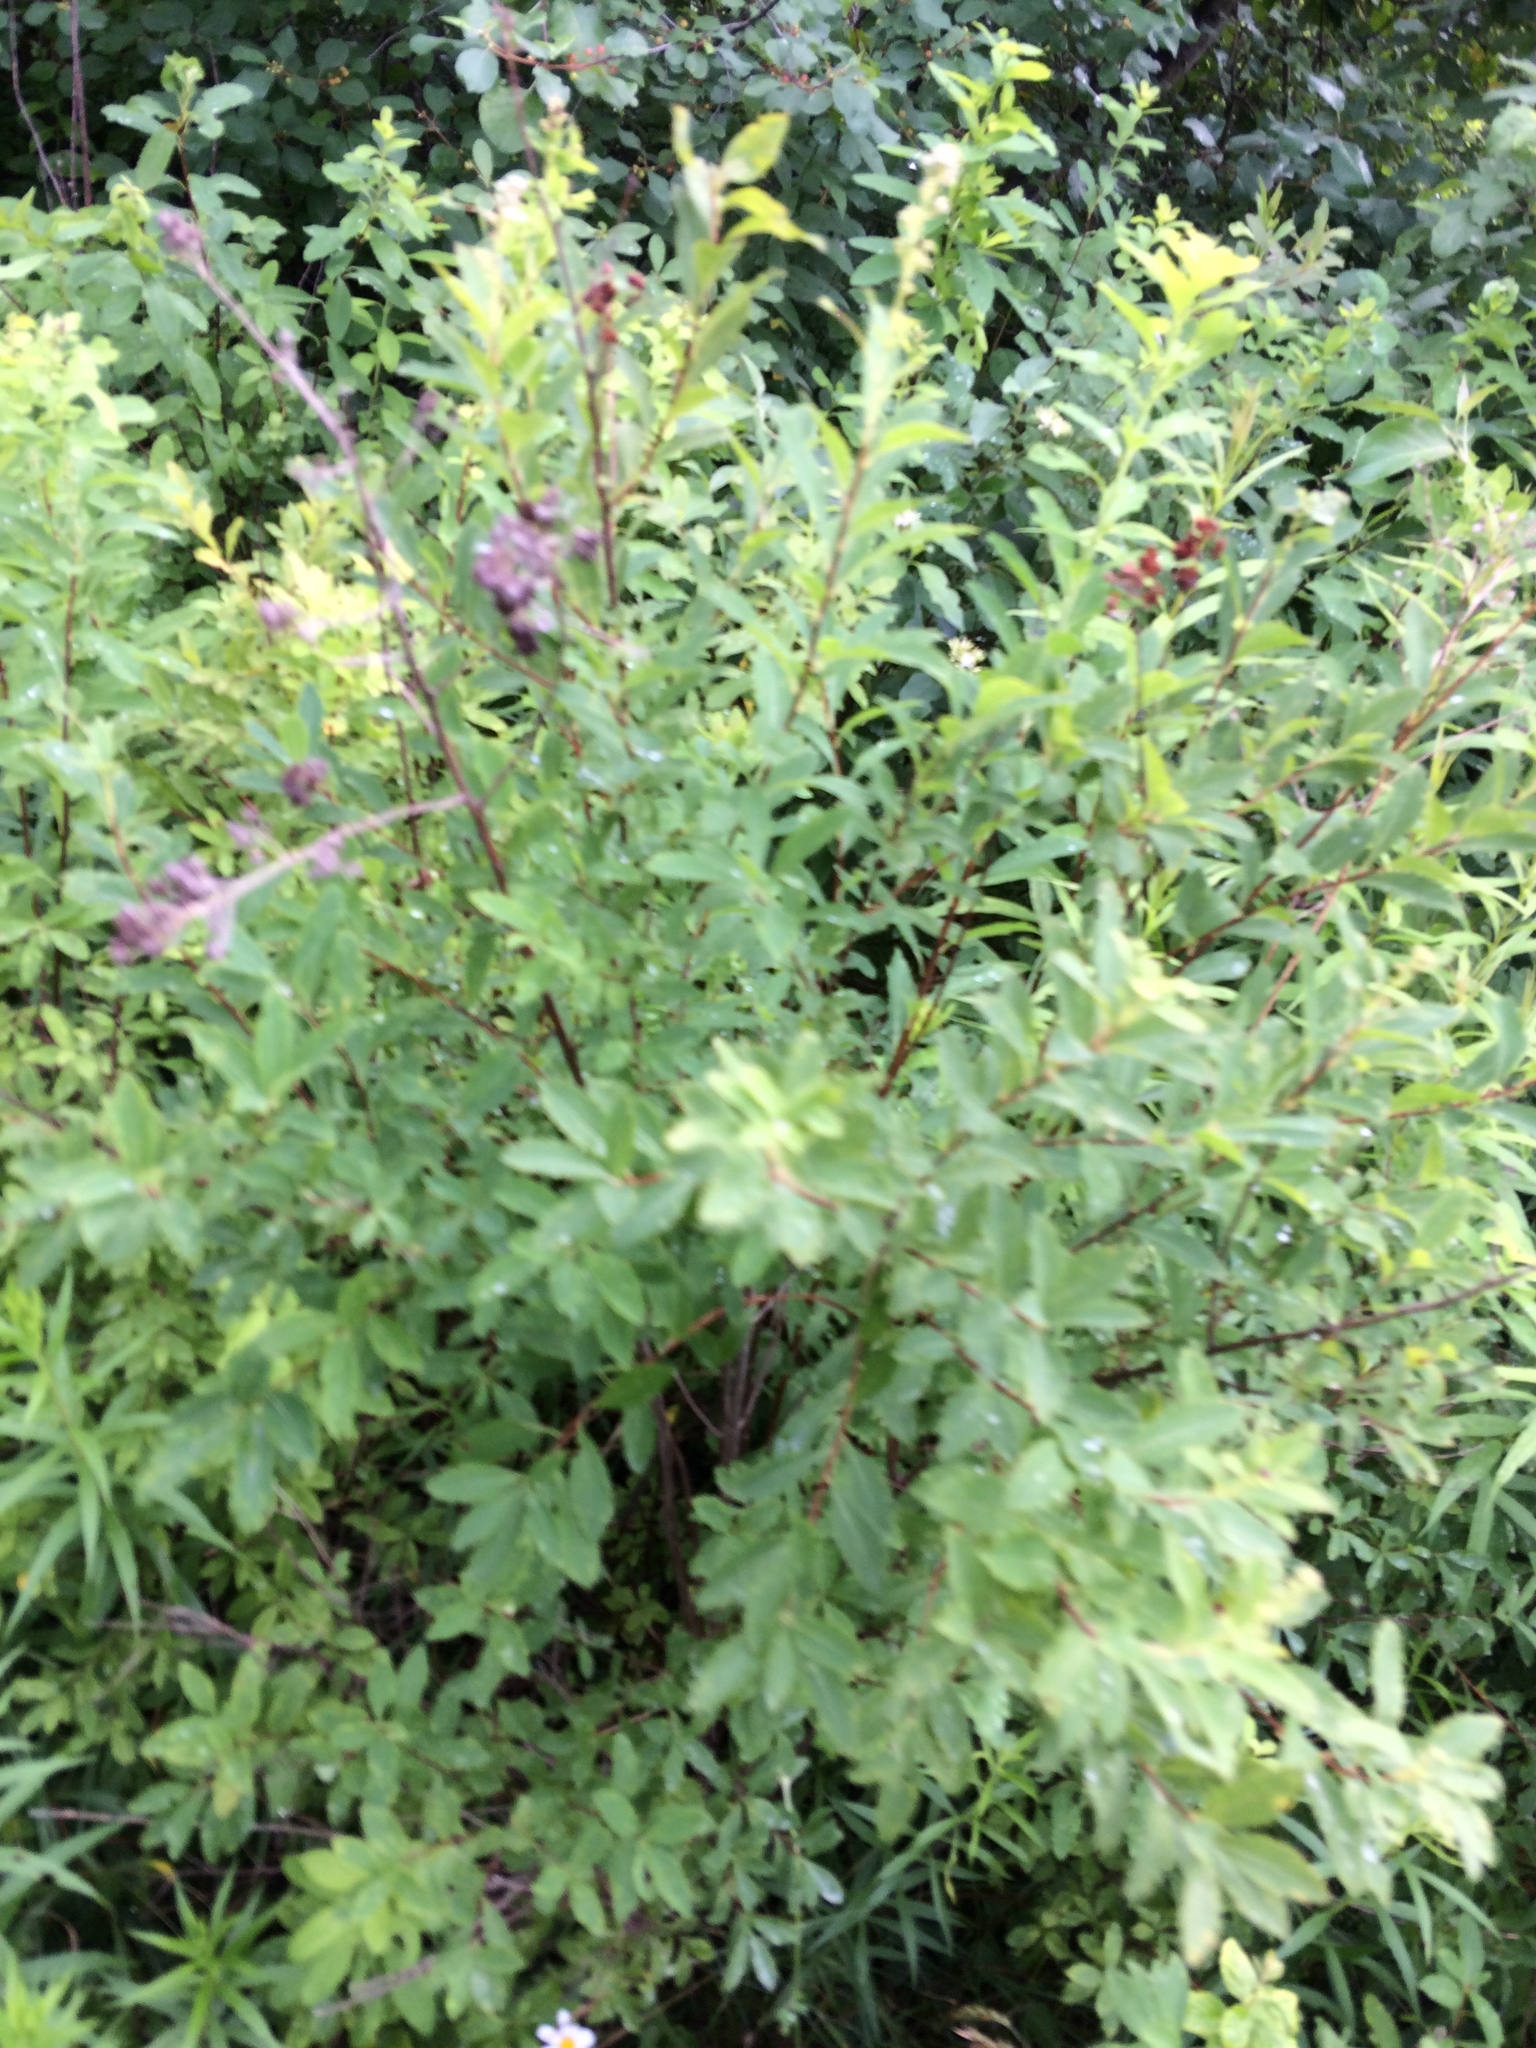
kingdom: Plantae
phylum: Tracheophyta
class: Magnoliopsida
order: Rosales
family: Rosaceae
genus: Spiraea
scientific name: Spiraea alba
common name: Pale bridewort
